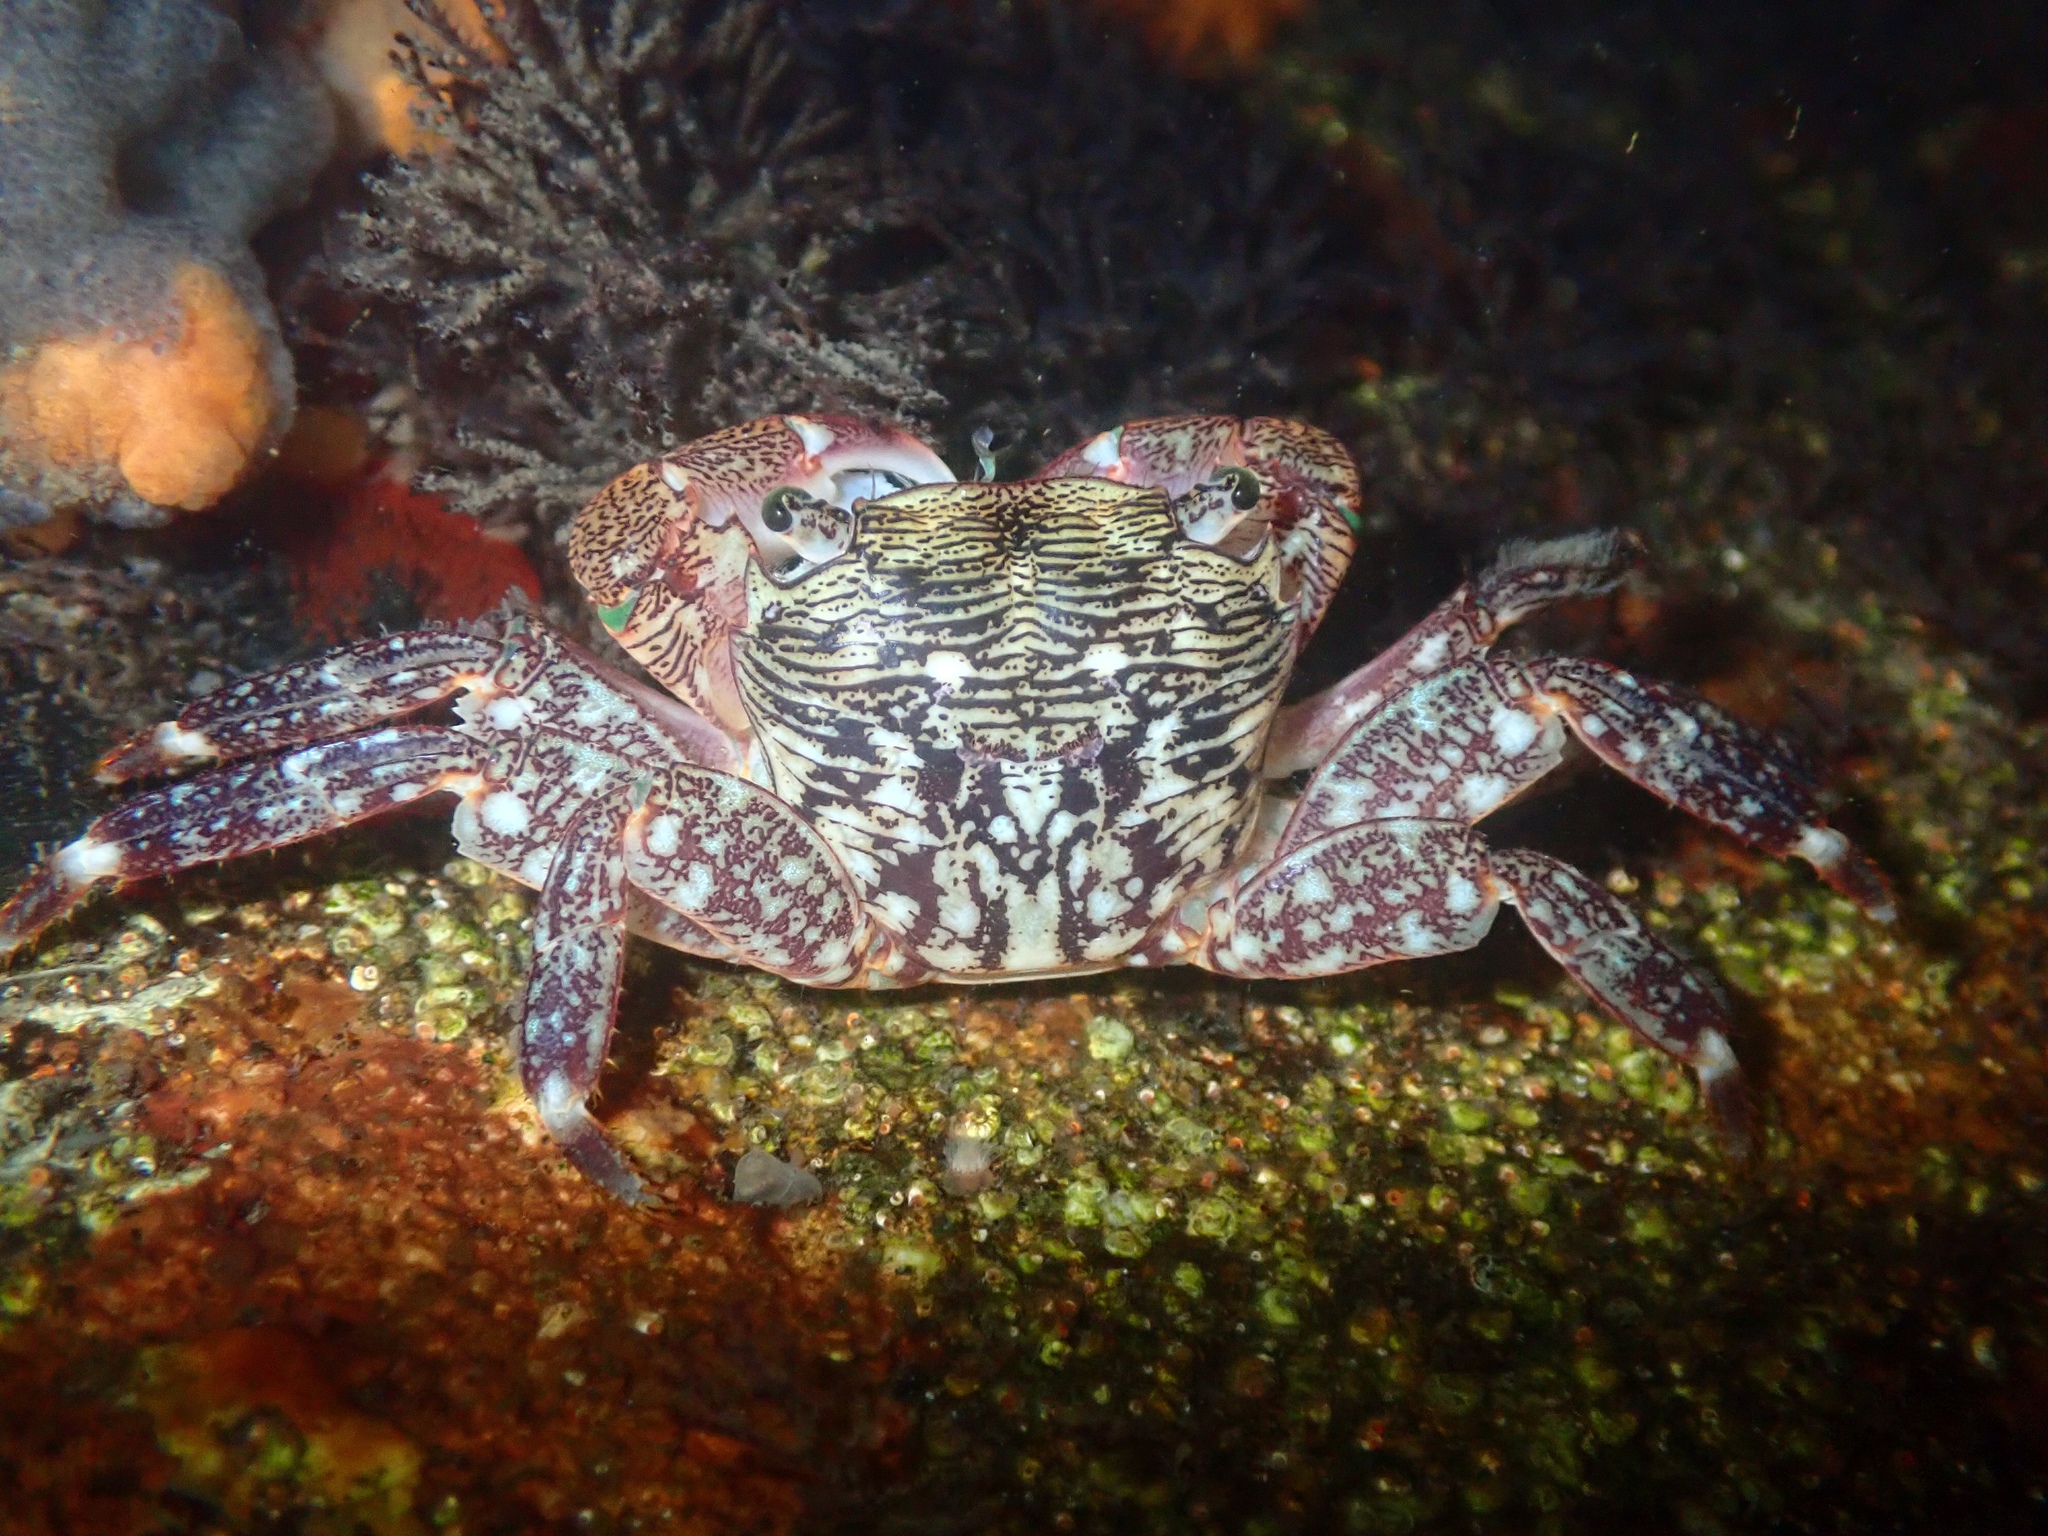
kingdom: Animalia
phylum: Arthropoda
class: Malacostraca
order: Decapoda
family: Grapsidae
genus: Pachygrapsus
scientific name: Pachygrapsus crassipes
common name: Striped shore crab
